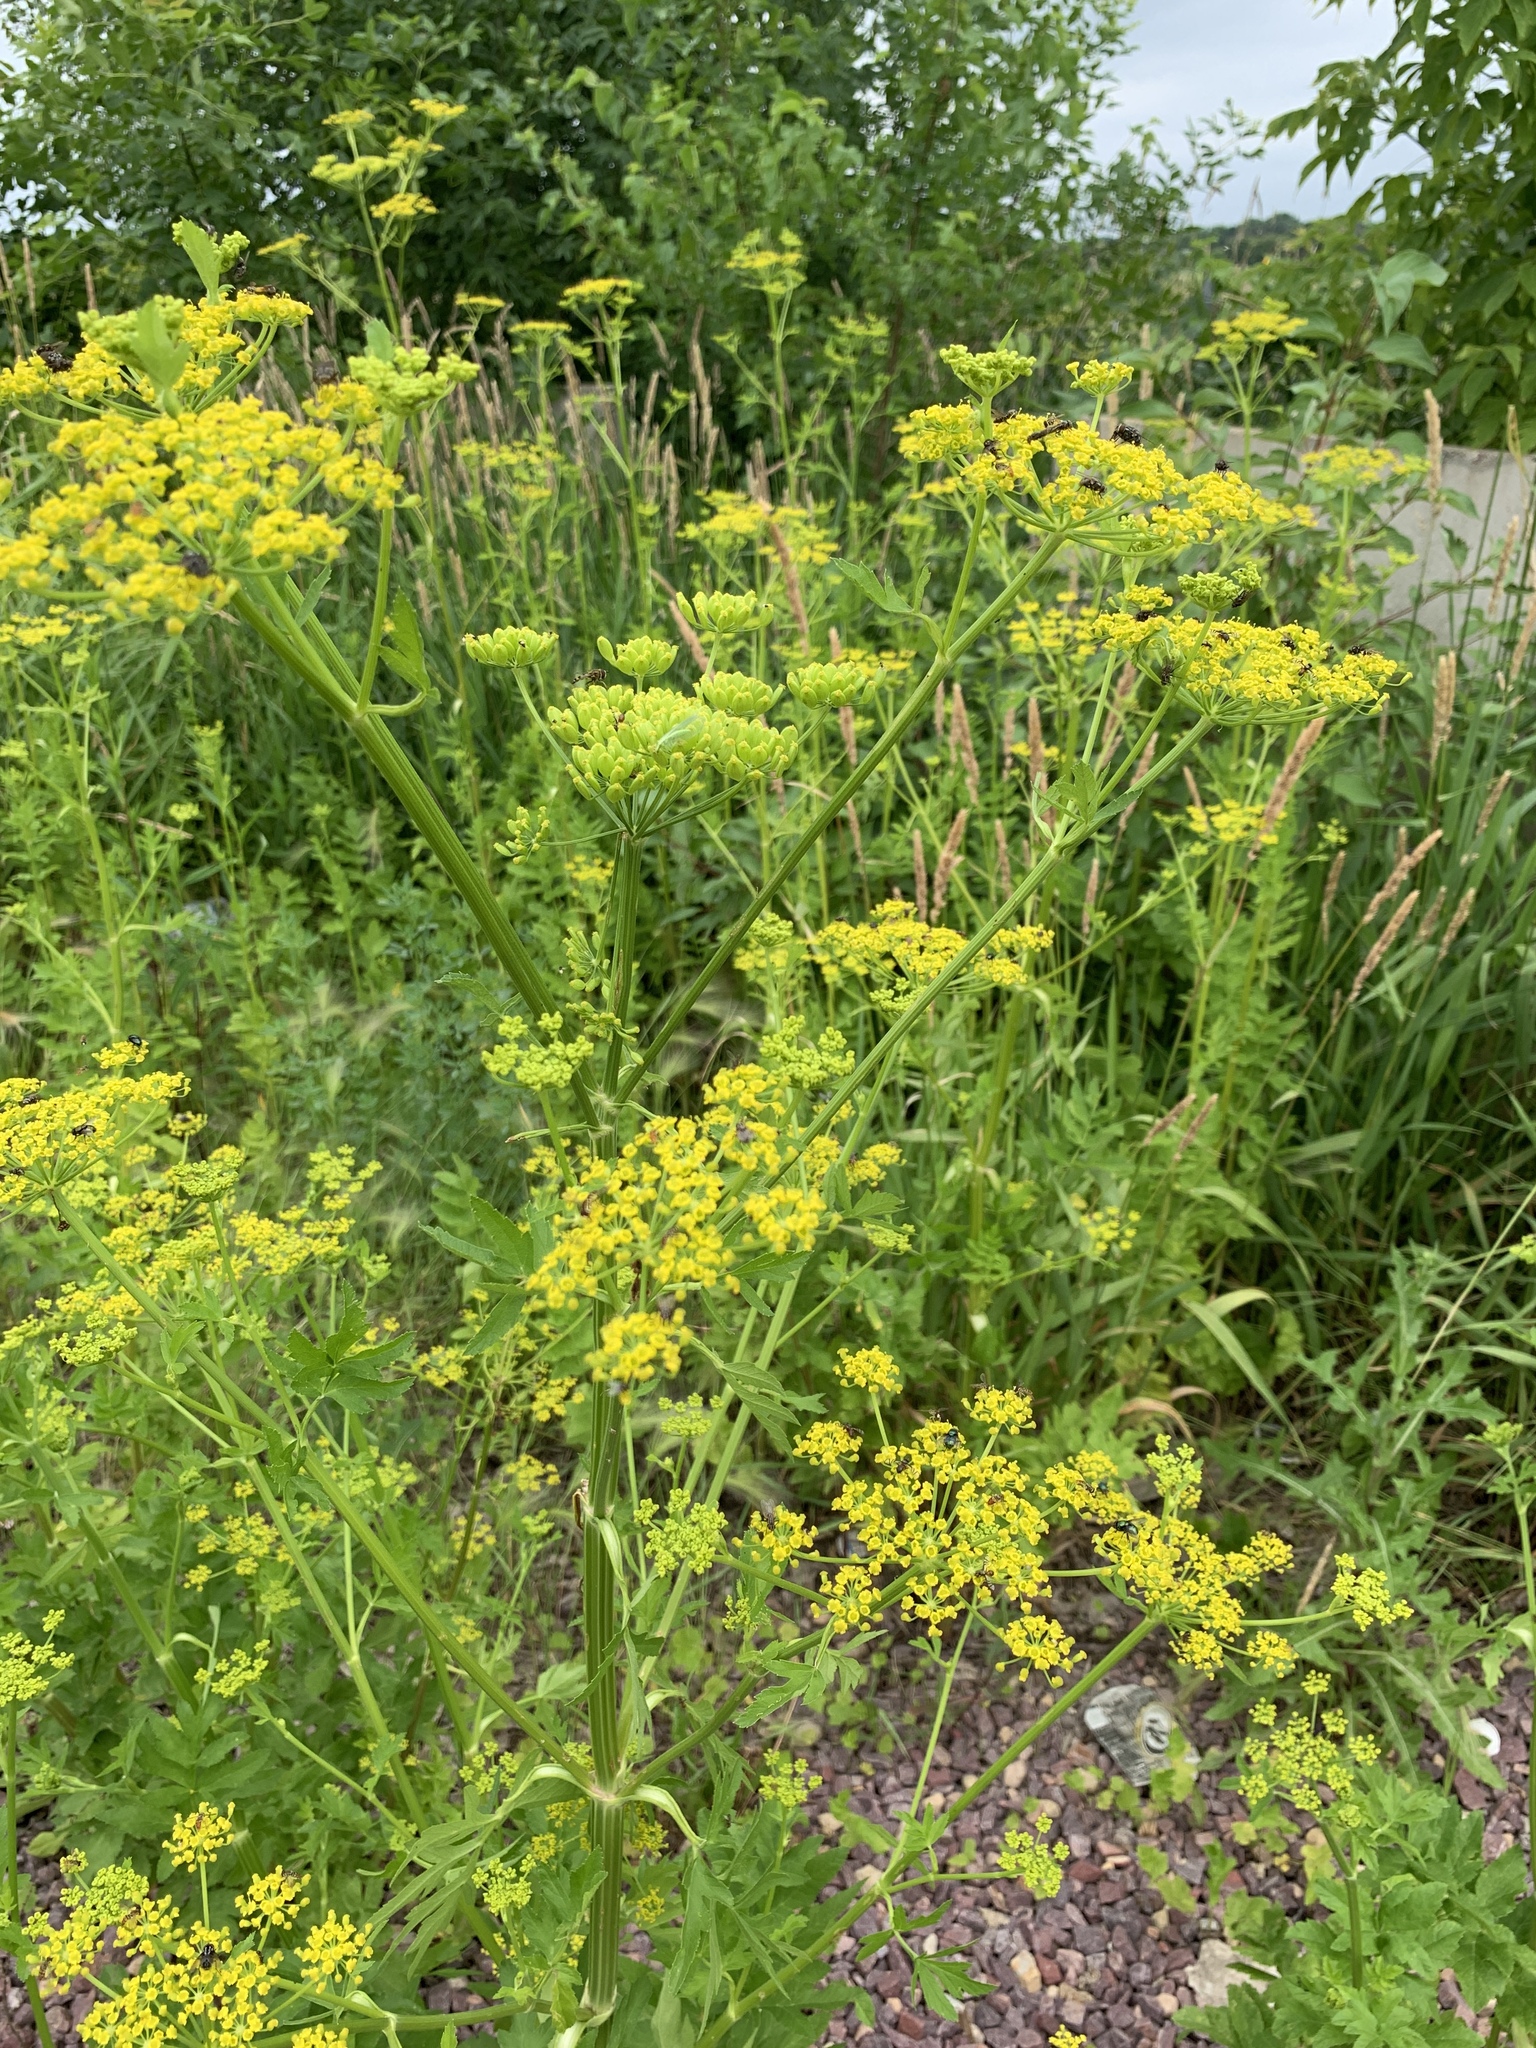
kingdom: Plantae
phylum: Tracheophyta
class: Magnoliopsida
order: Apiales
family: Apiaceae
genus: Pastinaca
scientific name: Pastinaca sativa
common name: Wild parsnip
